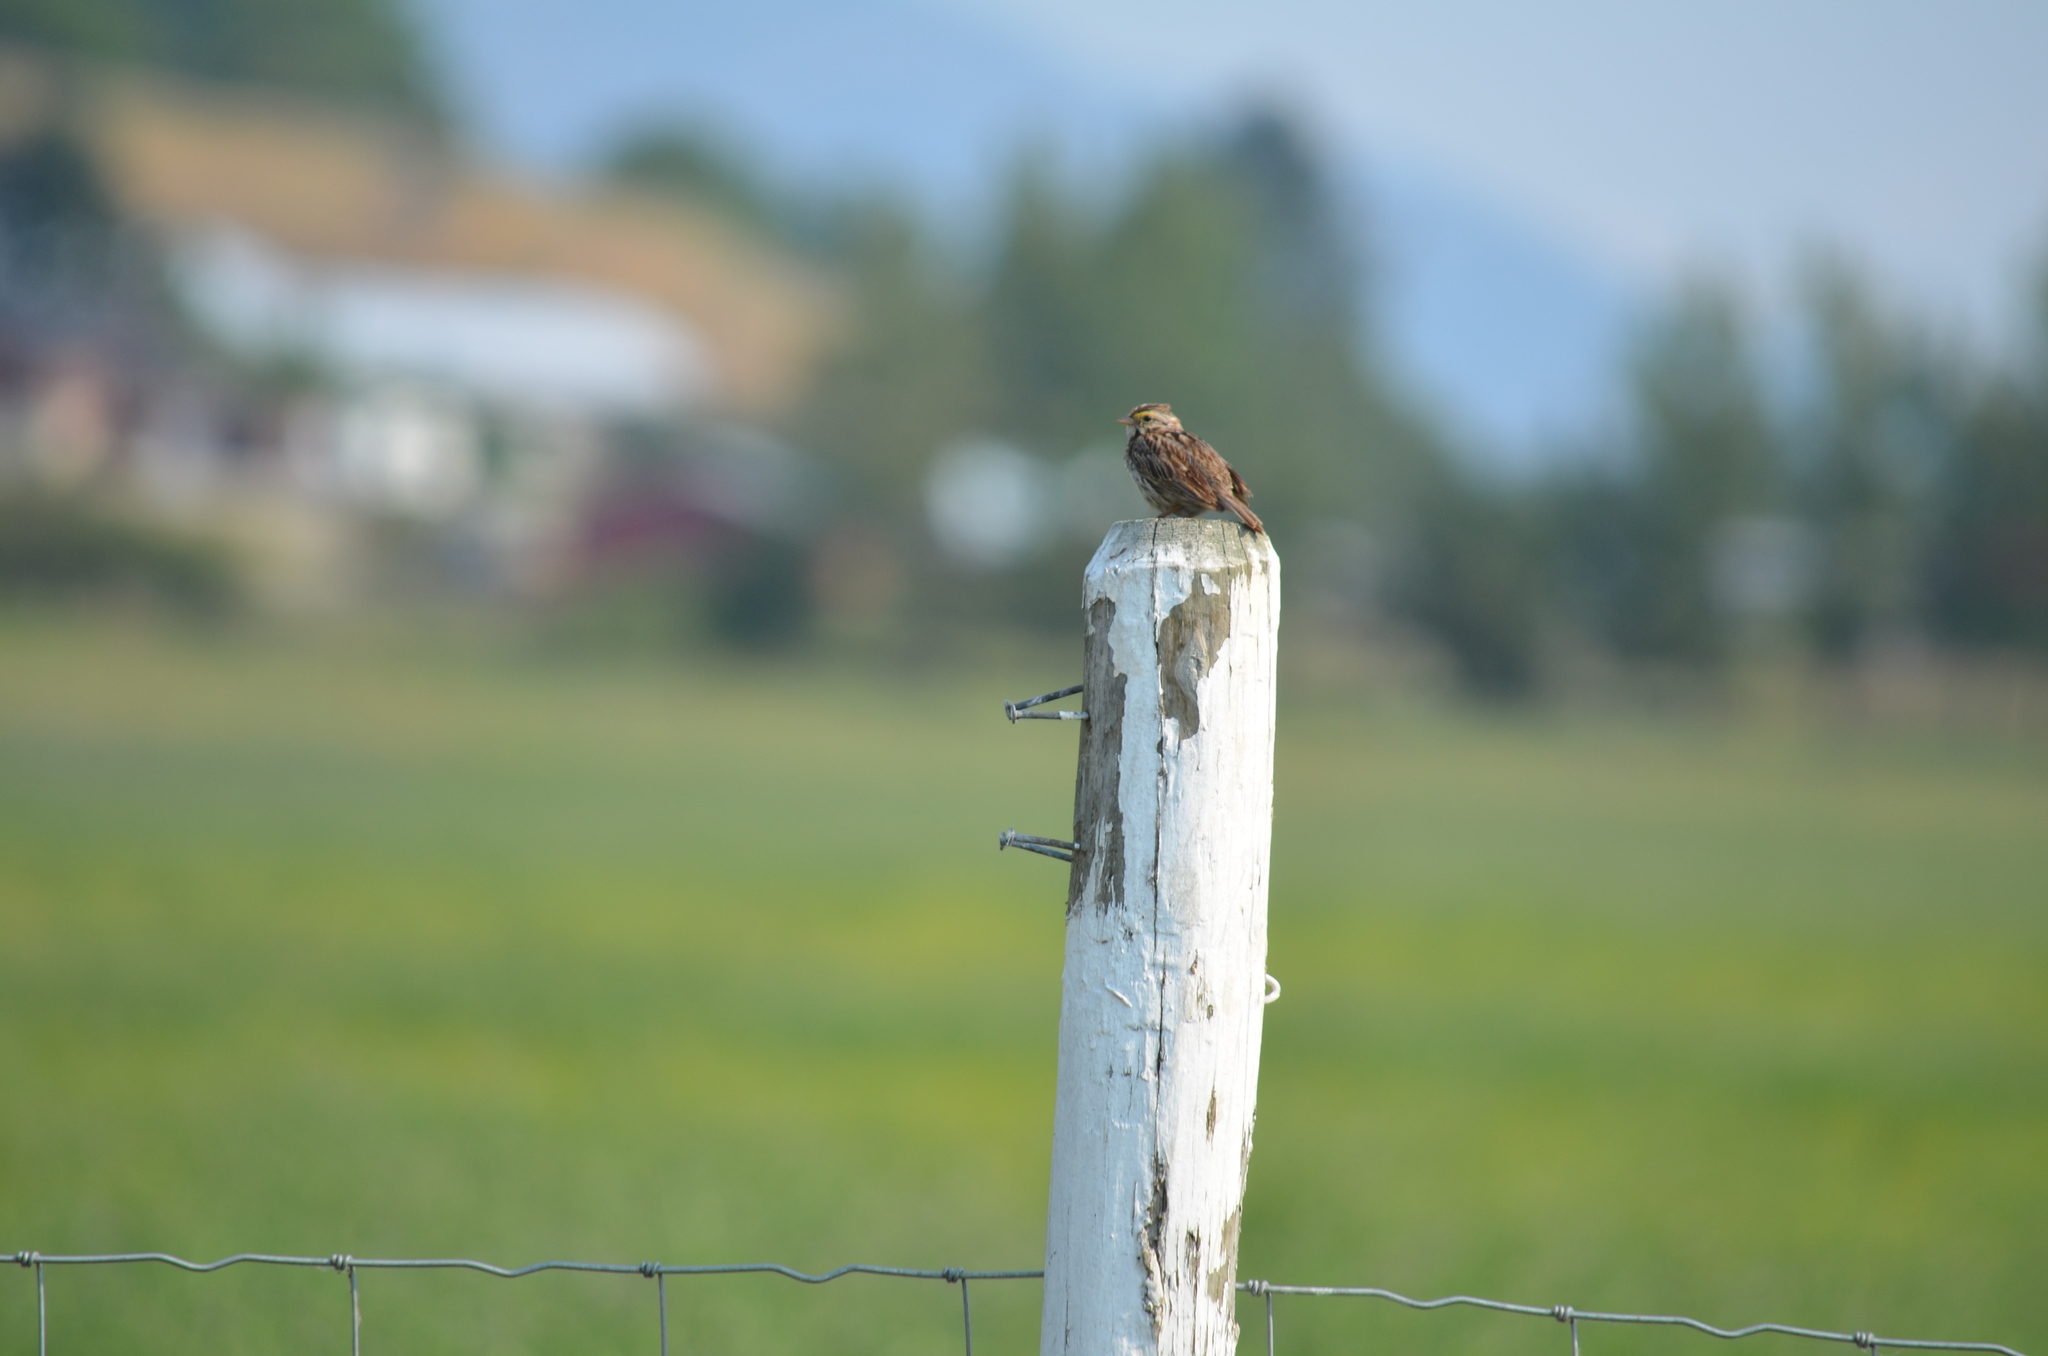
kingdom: Animalia
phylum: Chordata
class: Aves
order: Passeriformes
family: Passerellidae
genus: Passerculus
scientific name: Passerculus sandwichensis
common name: Savannah sparrow
